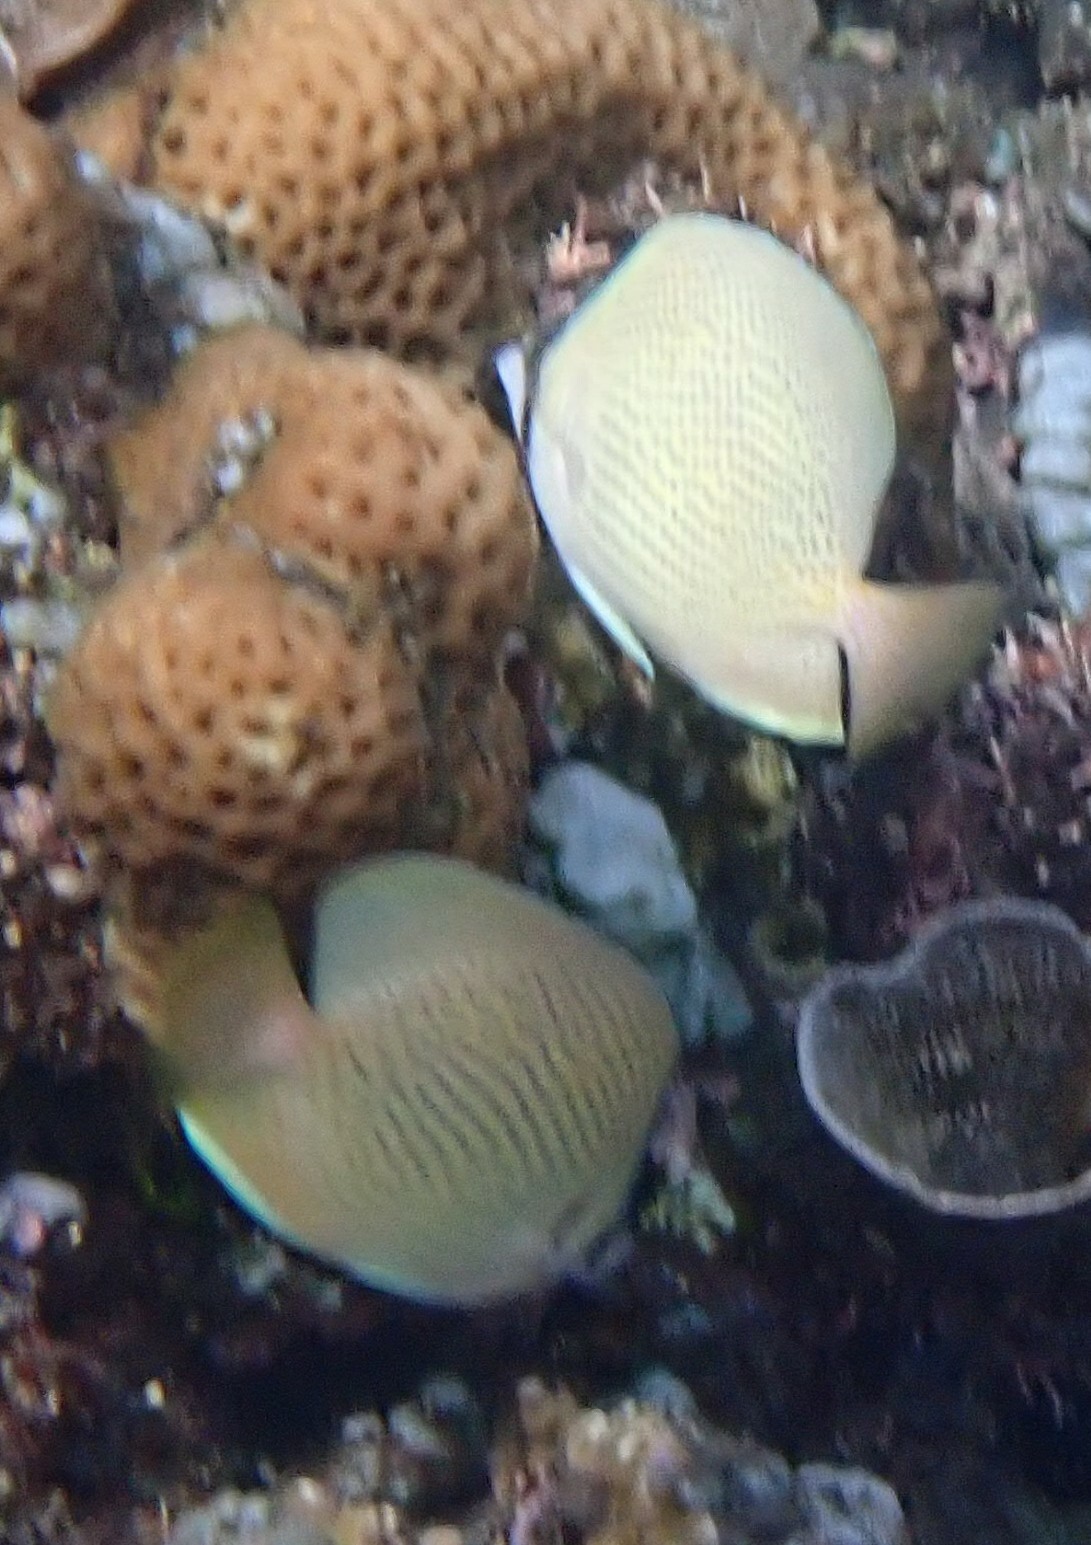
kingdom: Animalia
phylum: Chordata
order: Perciformes
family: Chaetodontidae
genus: Chaetodon
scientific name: Chaetodon citrinellus
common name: Speckled butterflyfish
